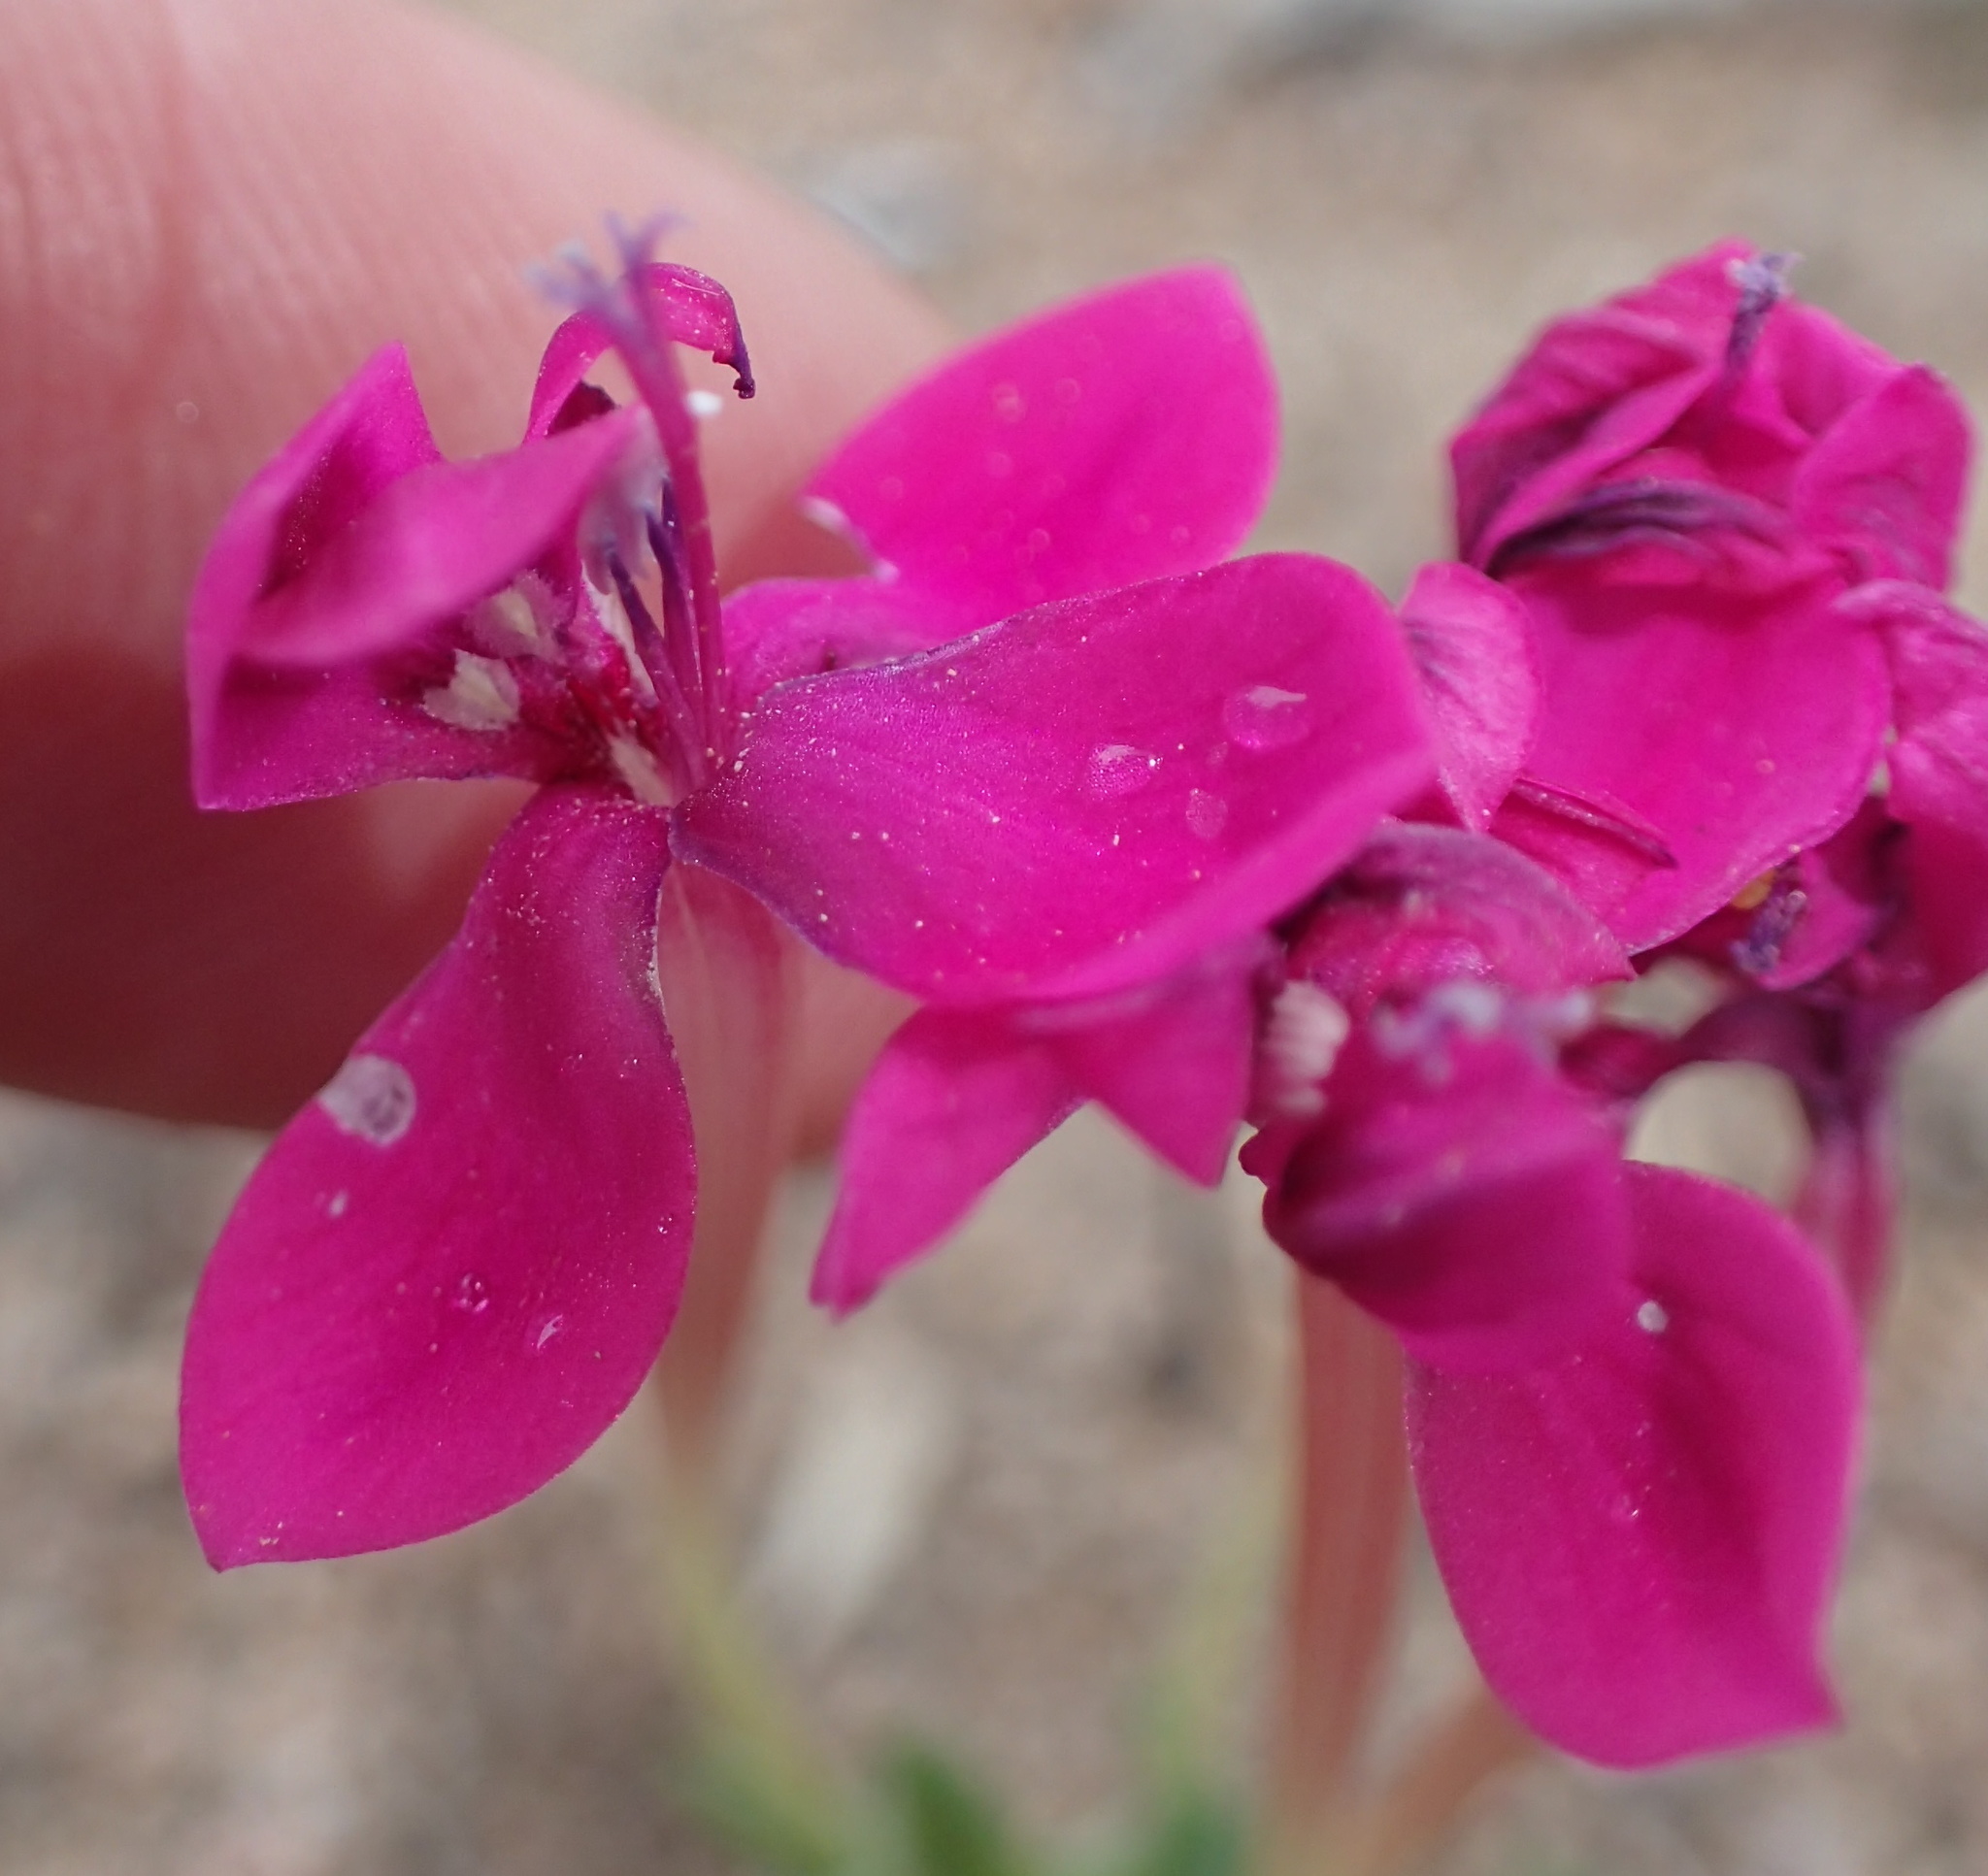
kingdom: Plantae
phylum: Tracheophyta
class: Liliopsida
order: Asparagales
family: Iridaceae
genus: Lapeirousia
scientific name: Lapeirousia silenoides
